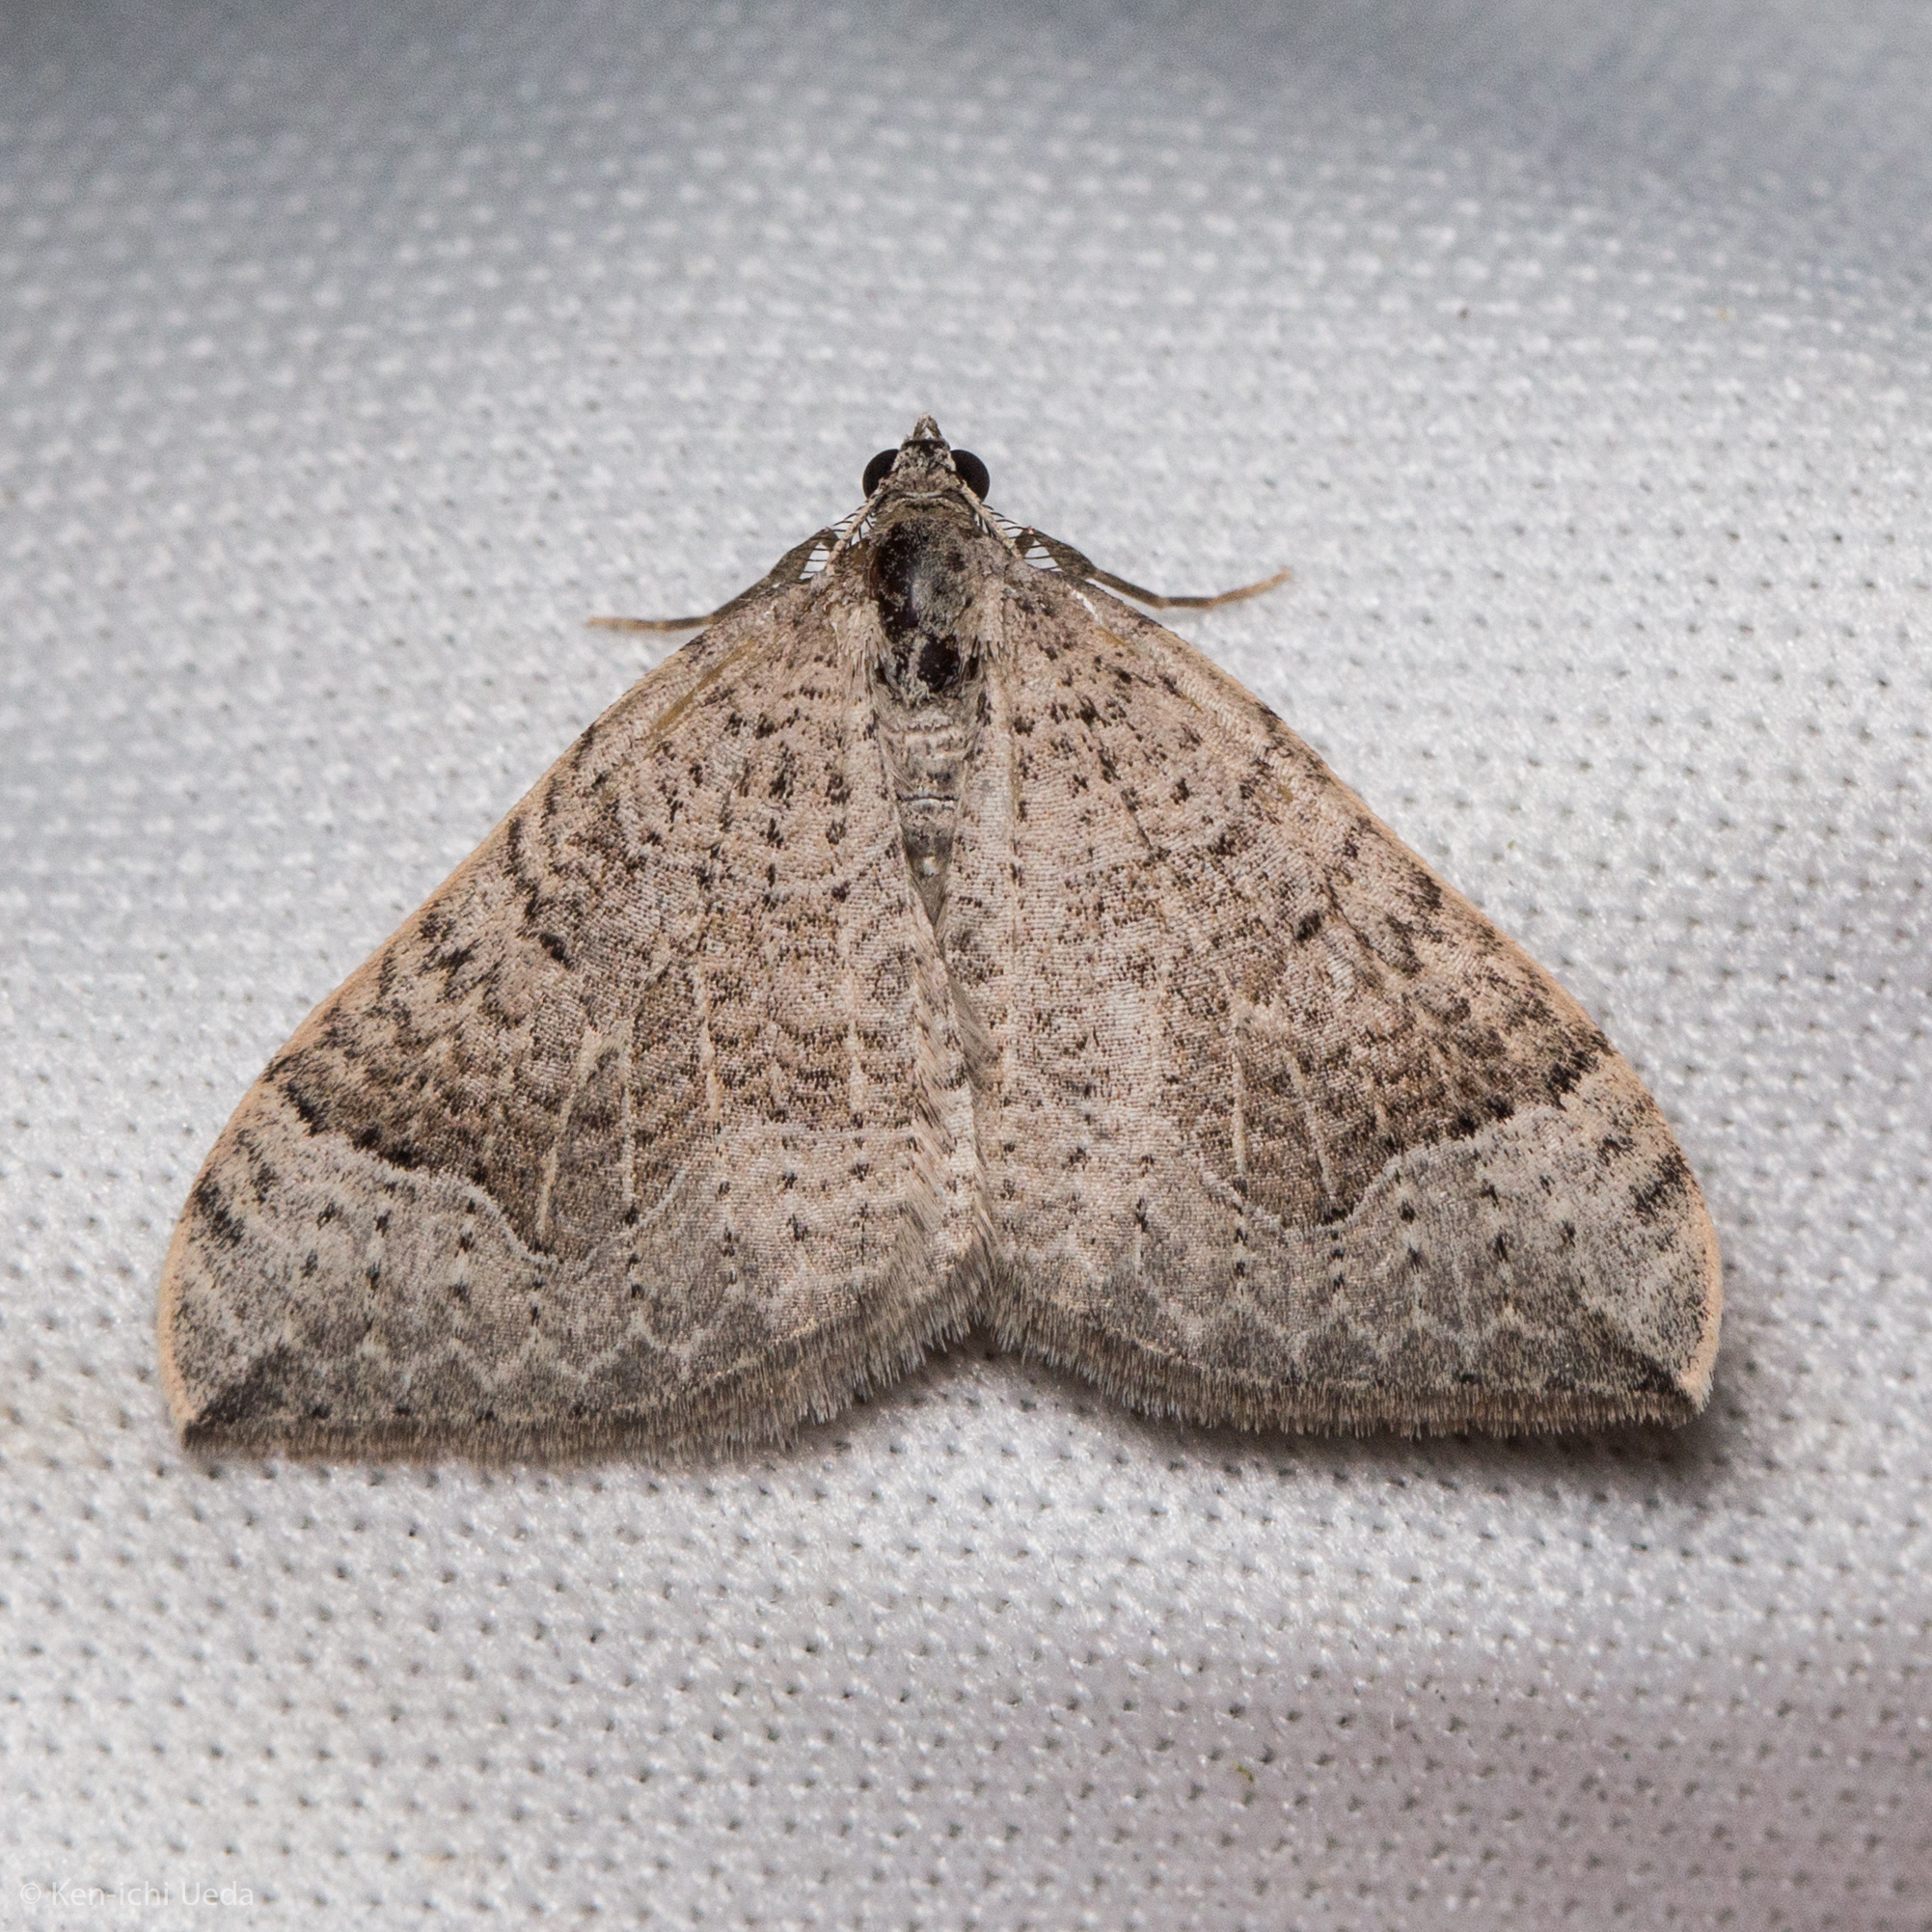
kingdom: Animalia
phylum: Arthropoda
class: Insecta
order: Lepidoptera
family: Geometridae
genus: Zenophleps
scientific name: Zenophleps lignicolorata
